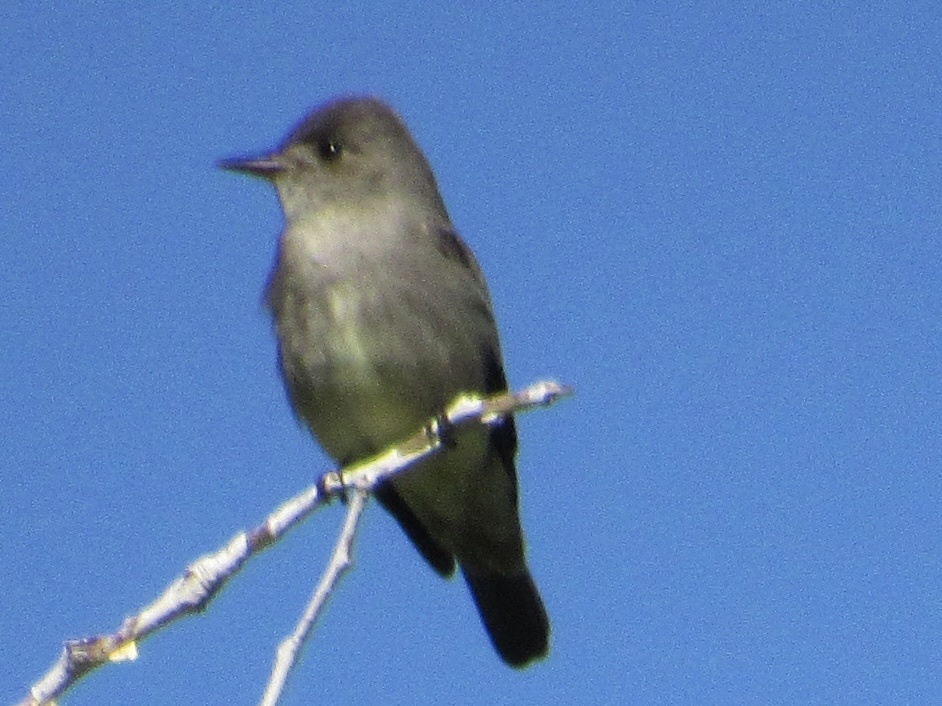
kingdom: Animalia
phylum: Chordata
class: Aves
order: Passeriformes
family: Tyrannidae
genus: Contopus
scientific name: Contopus sordidulus
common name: Western wood-pewee
